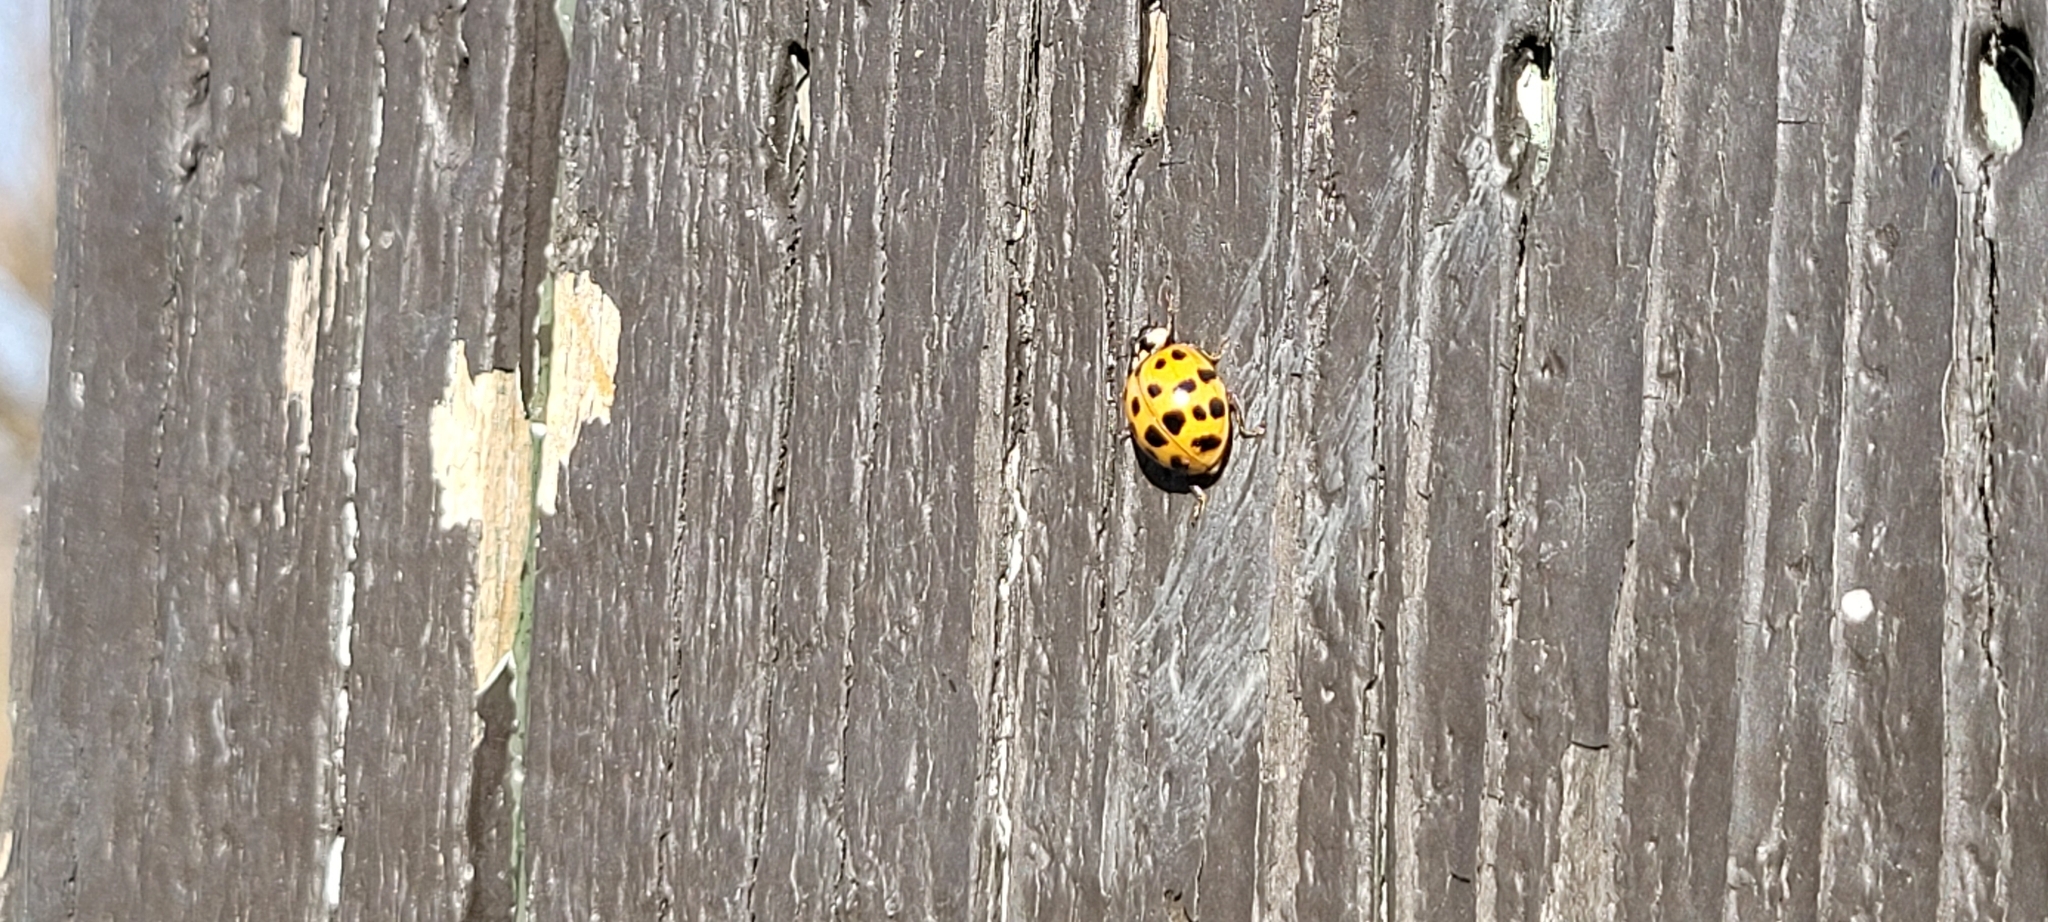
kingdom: Animalia
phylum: Arthropoda
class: Insecta
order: Coleoptera
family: Coccinellidae
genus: Harmonia
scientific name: Harmonia axyridis
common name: Harlequin ladybird
